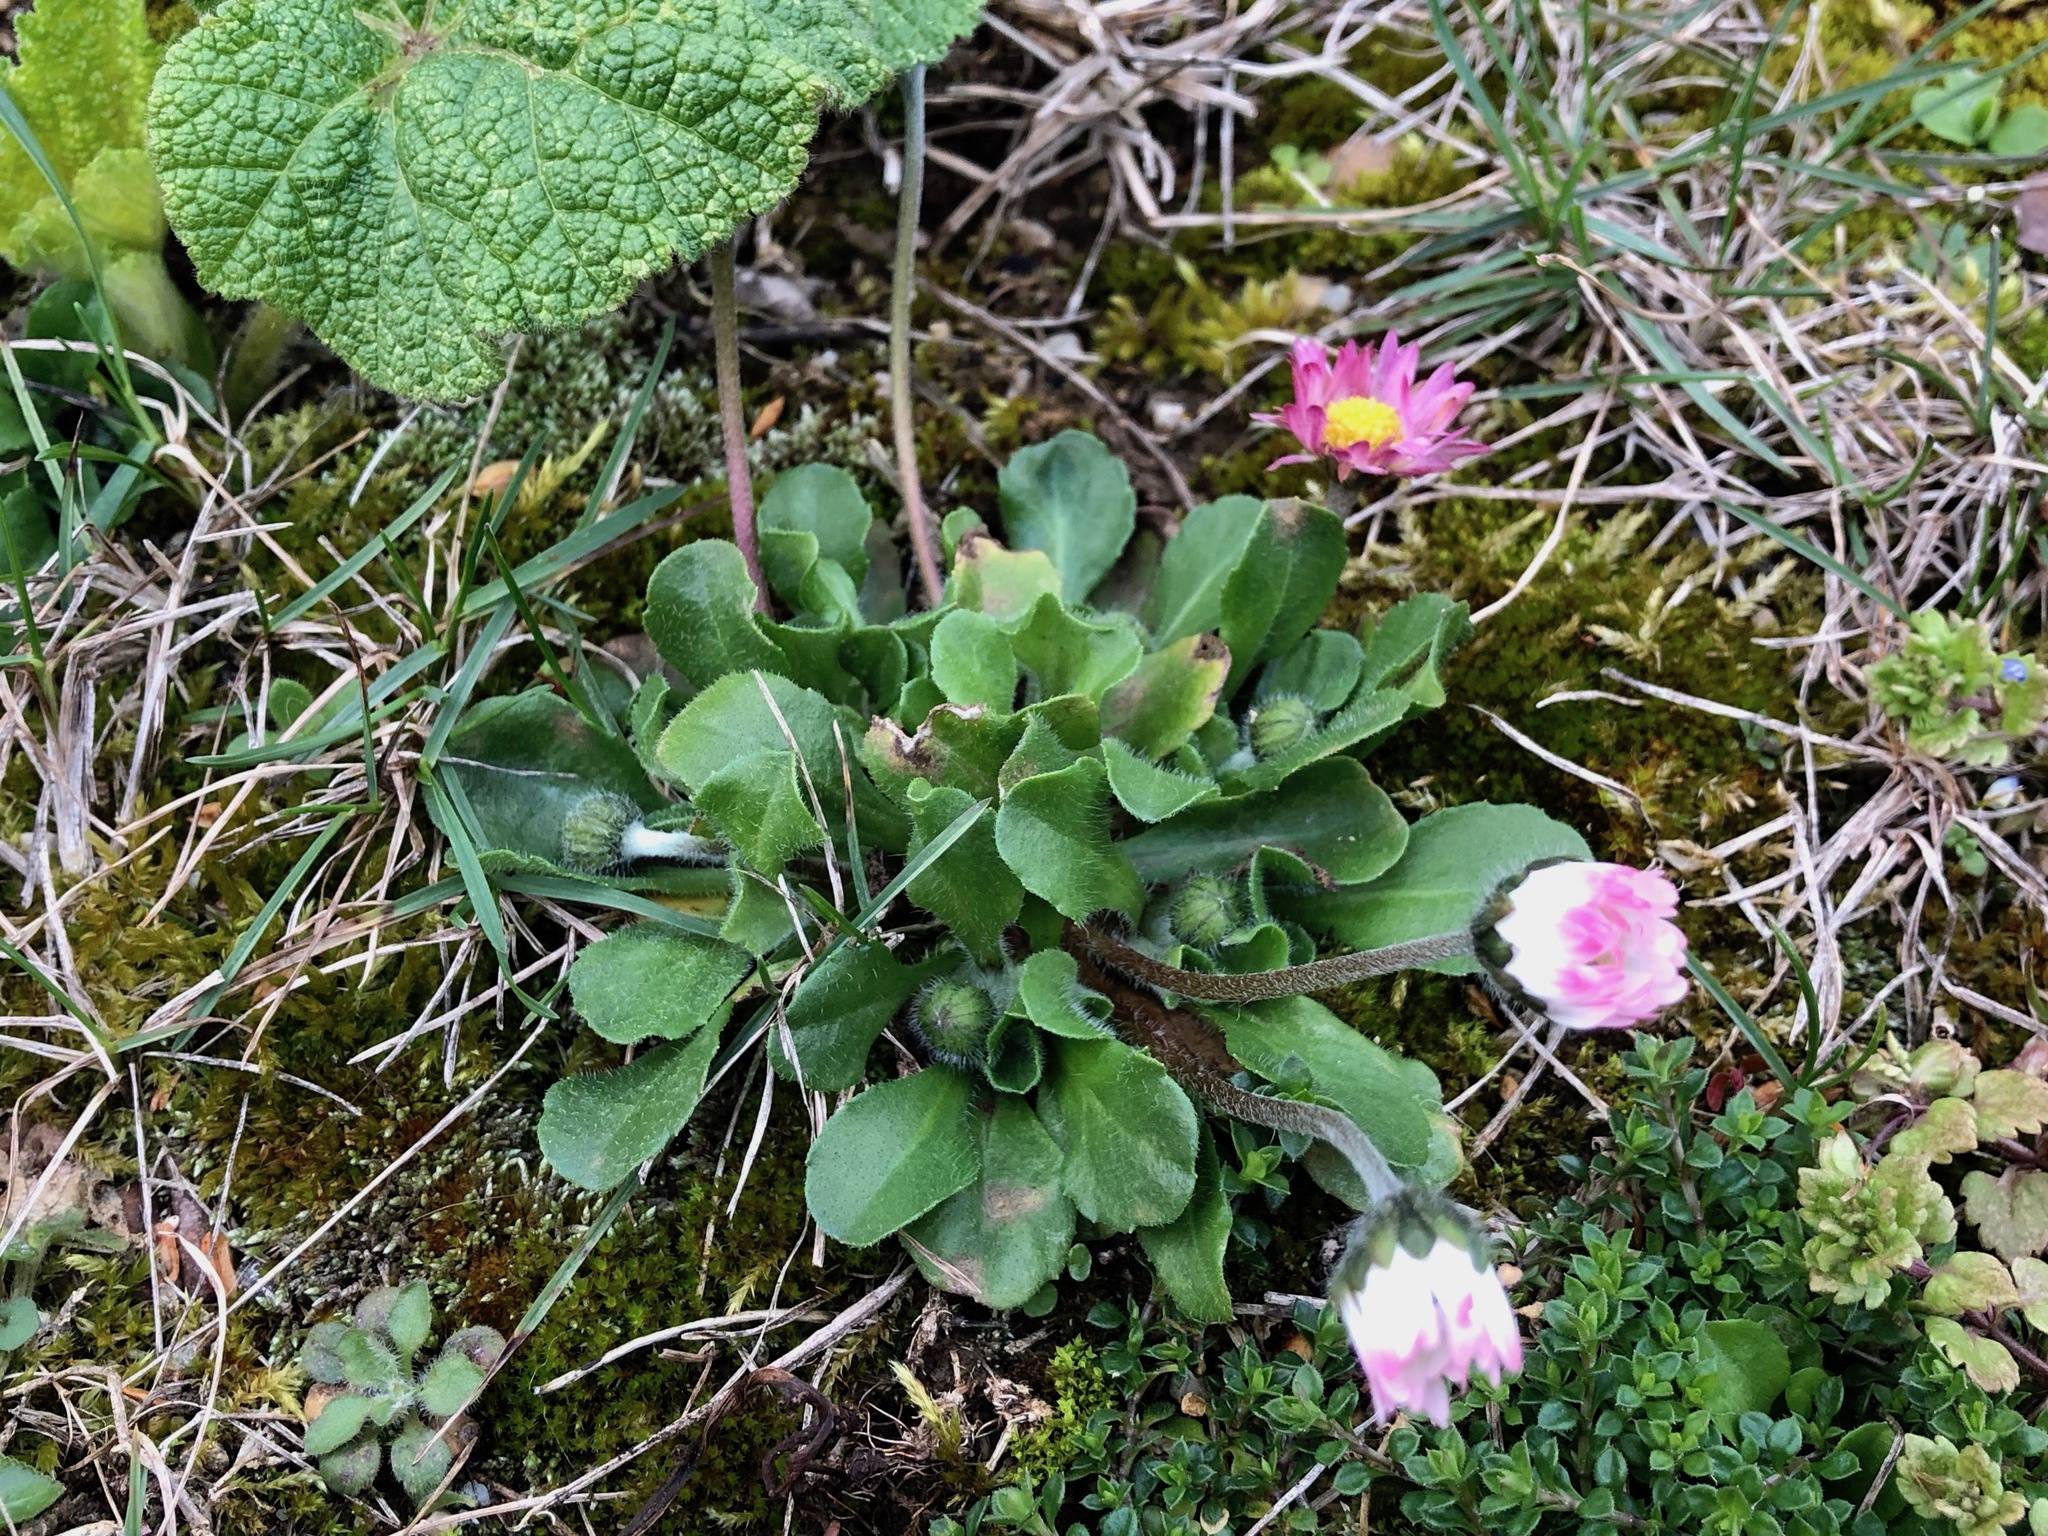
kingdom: Plantae
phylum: Tracheophyta
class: Magnoliopsida
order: Asterales
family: Asteraceae
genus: Bellis
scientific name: Bellis perennis
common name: Lawndaisy
